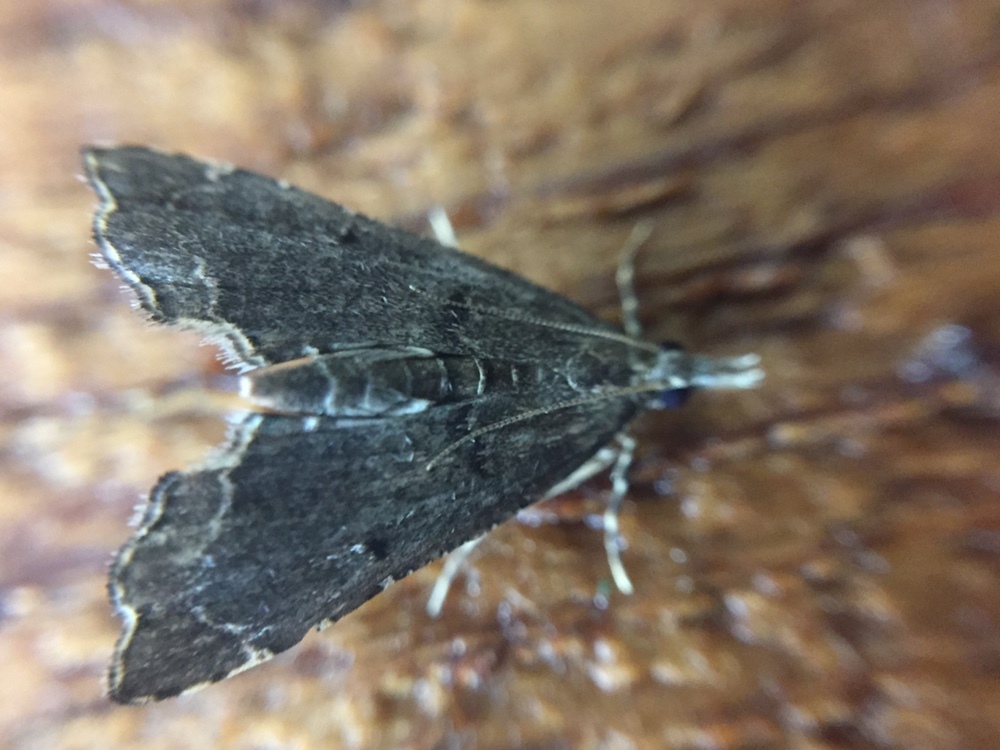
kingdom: Animalia
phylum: Arthropoda
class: Insecta
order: Lepidoptera
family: Crambidae
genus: Diplopseustis
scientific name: Diplopseustis perieresalis
